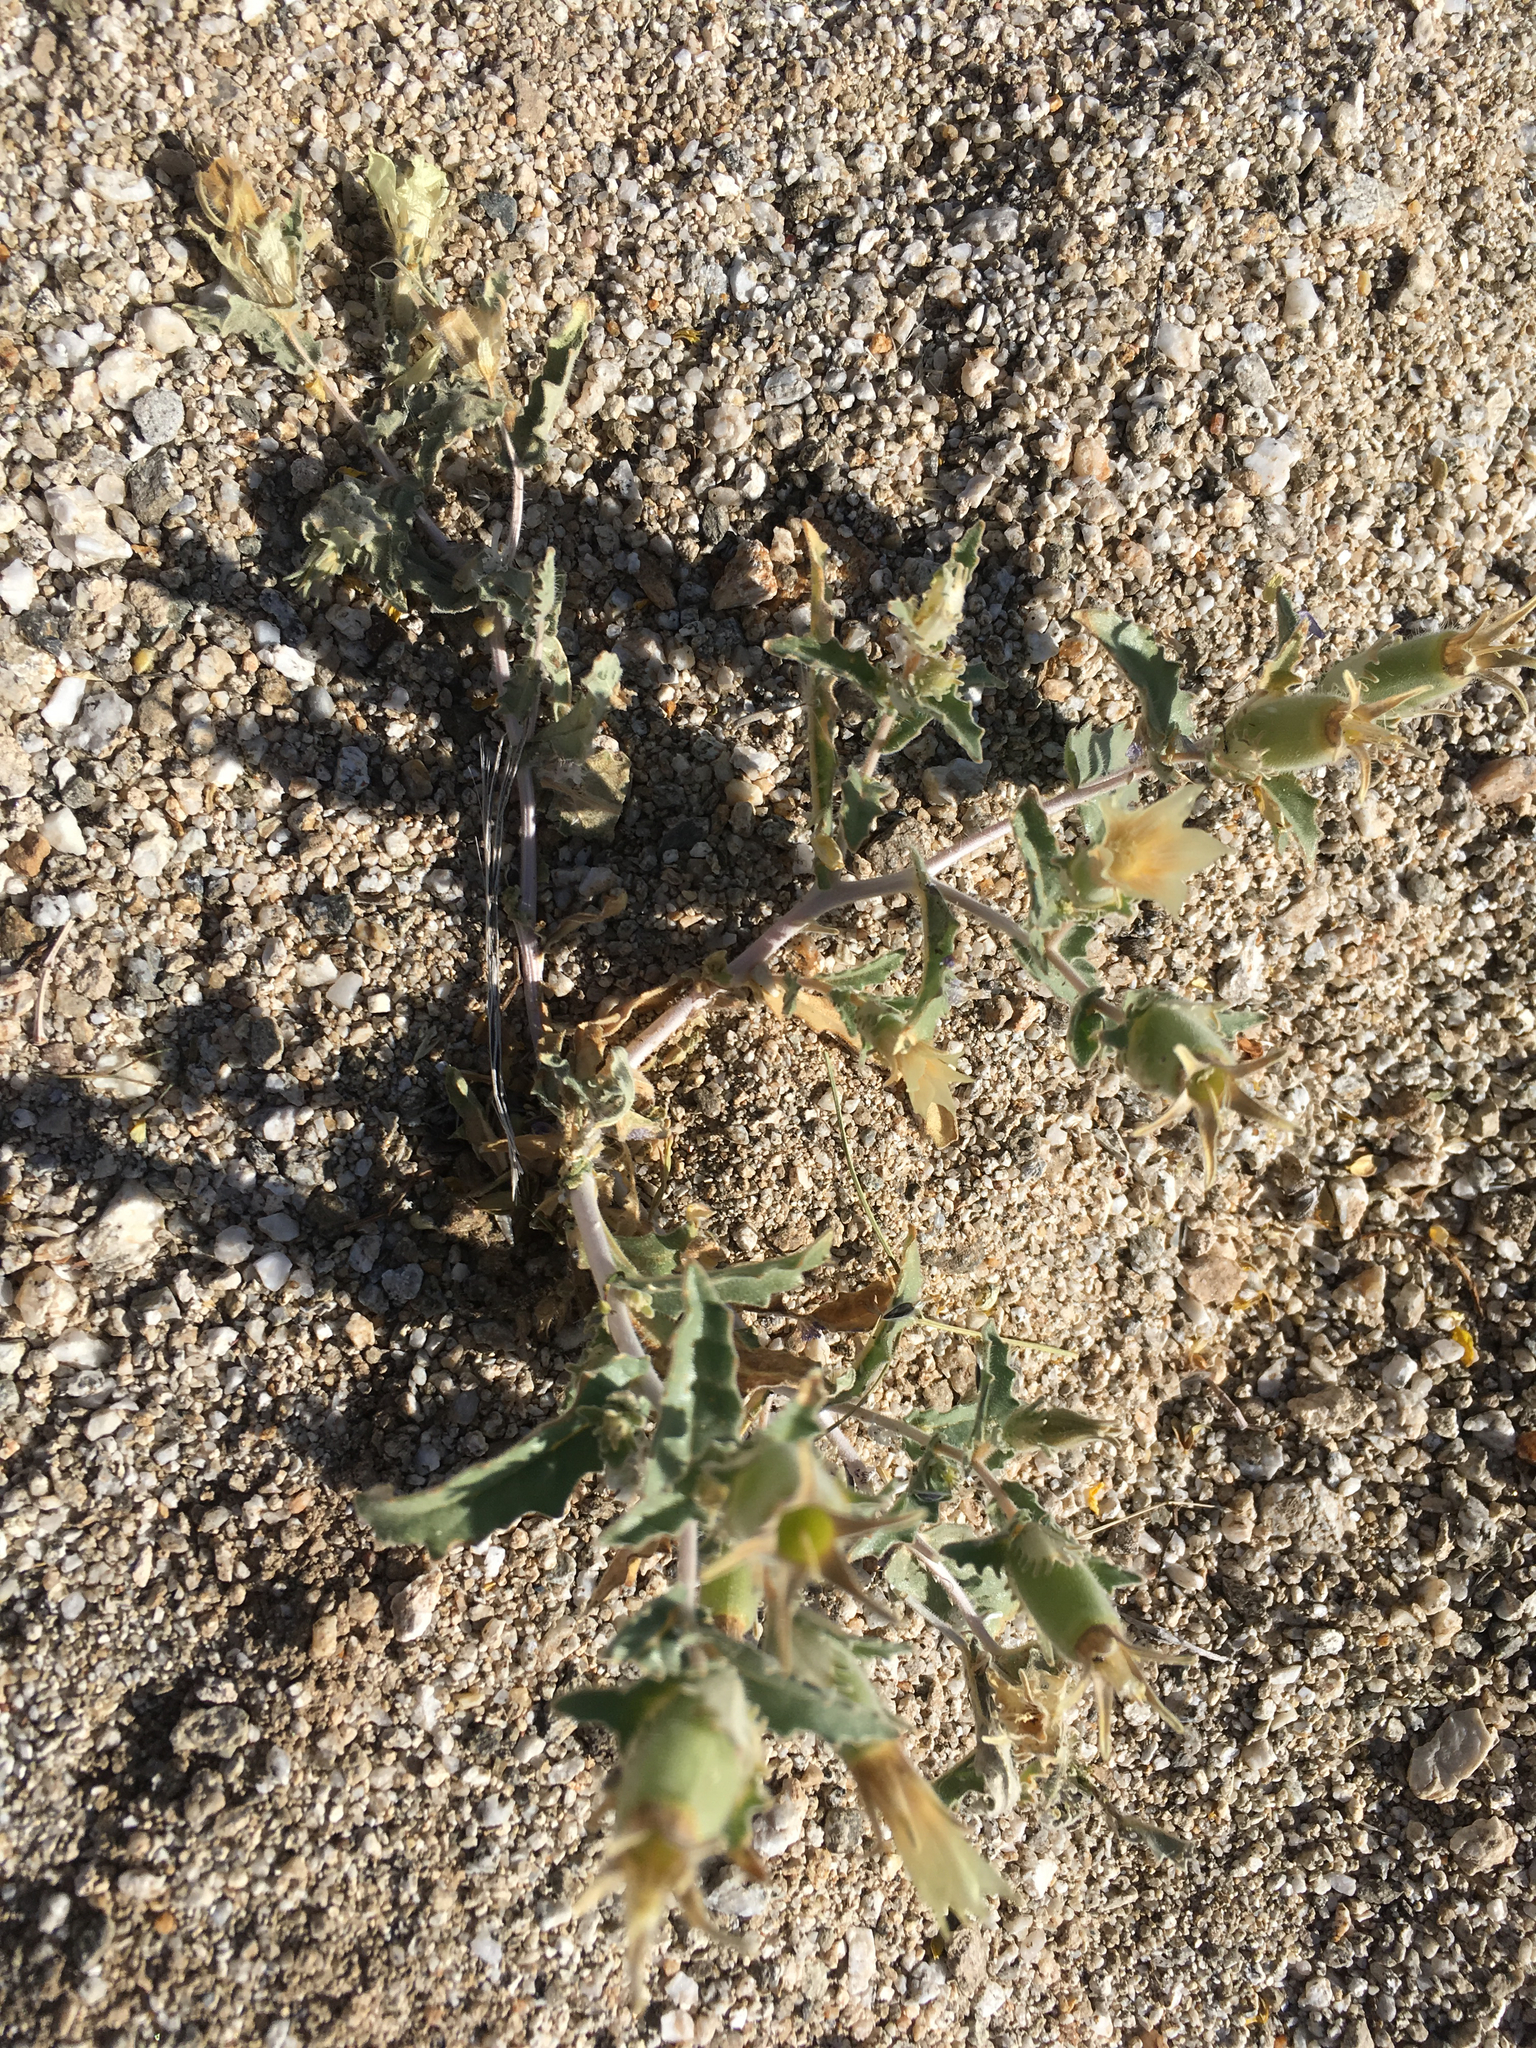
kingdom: Plantae
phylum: Tracheophyta
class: Magnoliopsida
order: Cornales
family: Loasaceae
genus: Mentzelia
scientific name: Mentzelia involucrata
